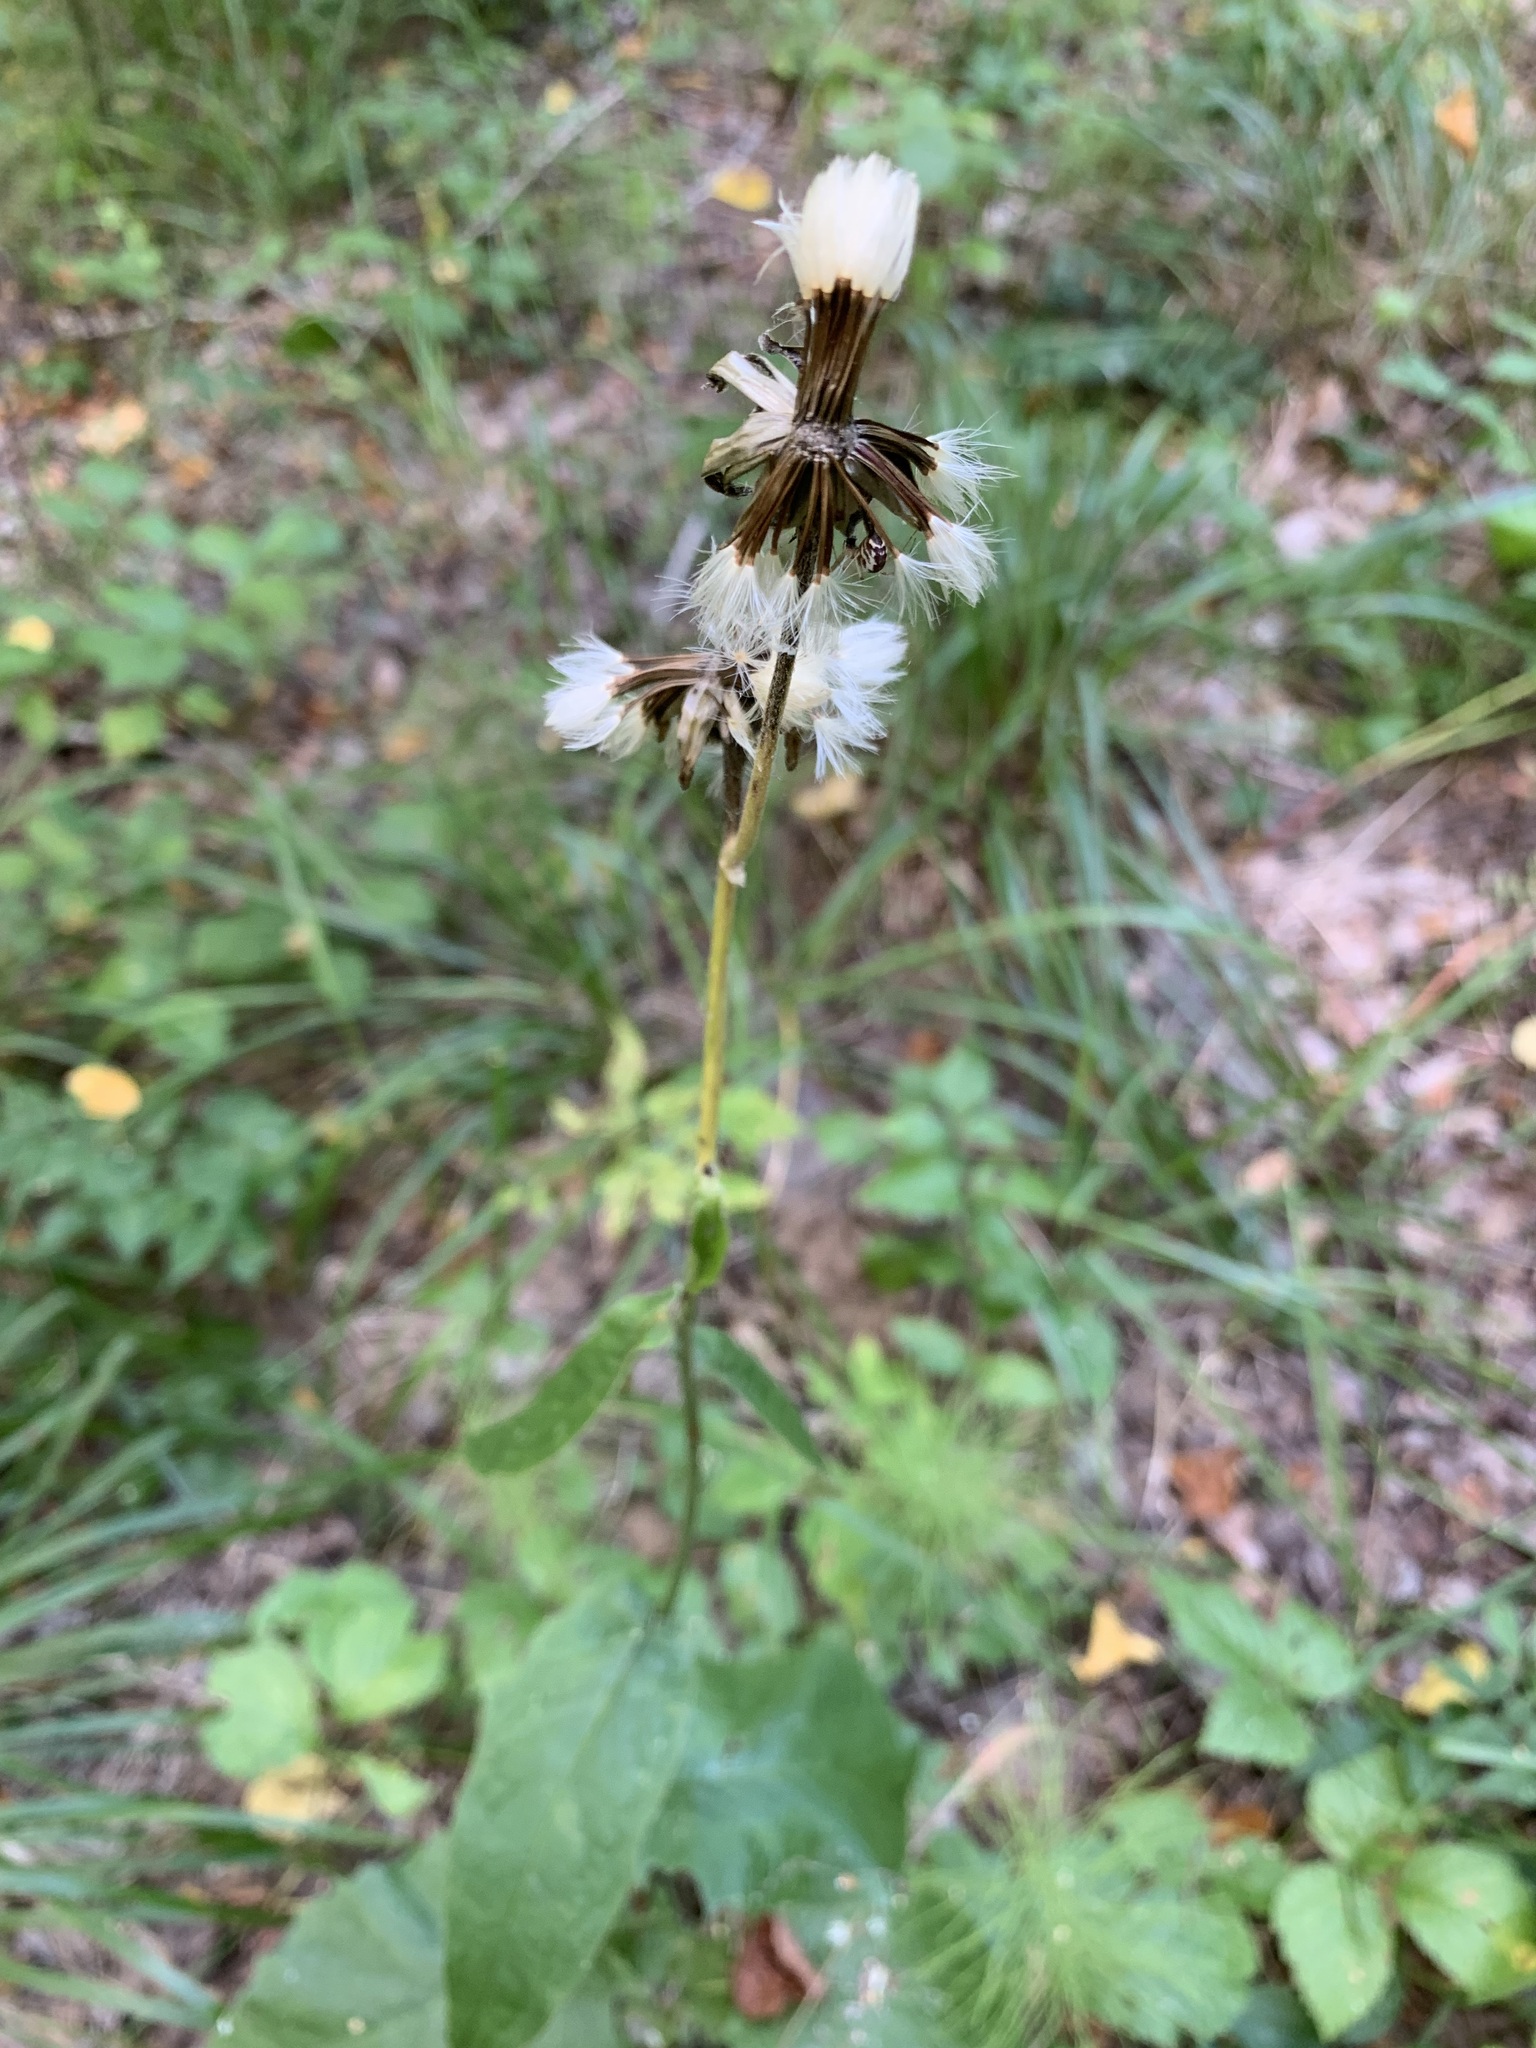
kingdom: Plantae
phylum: Tracheophyta
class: Magnoliopsida
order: Asterales
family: Asteraceae
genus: Crepis
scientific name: Crepis sibirica
